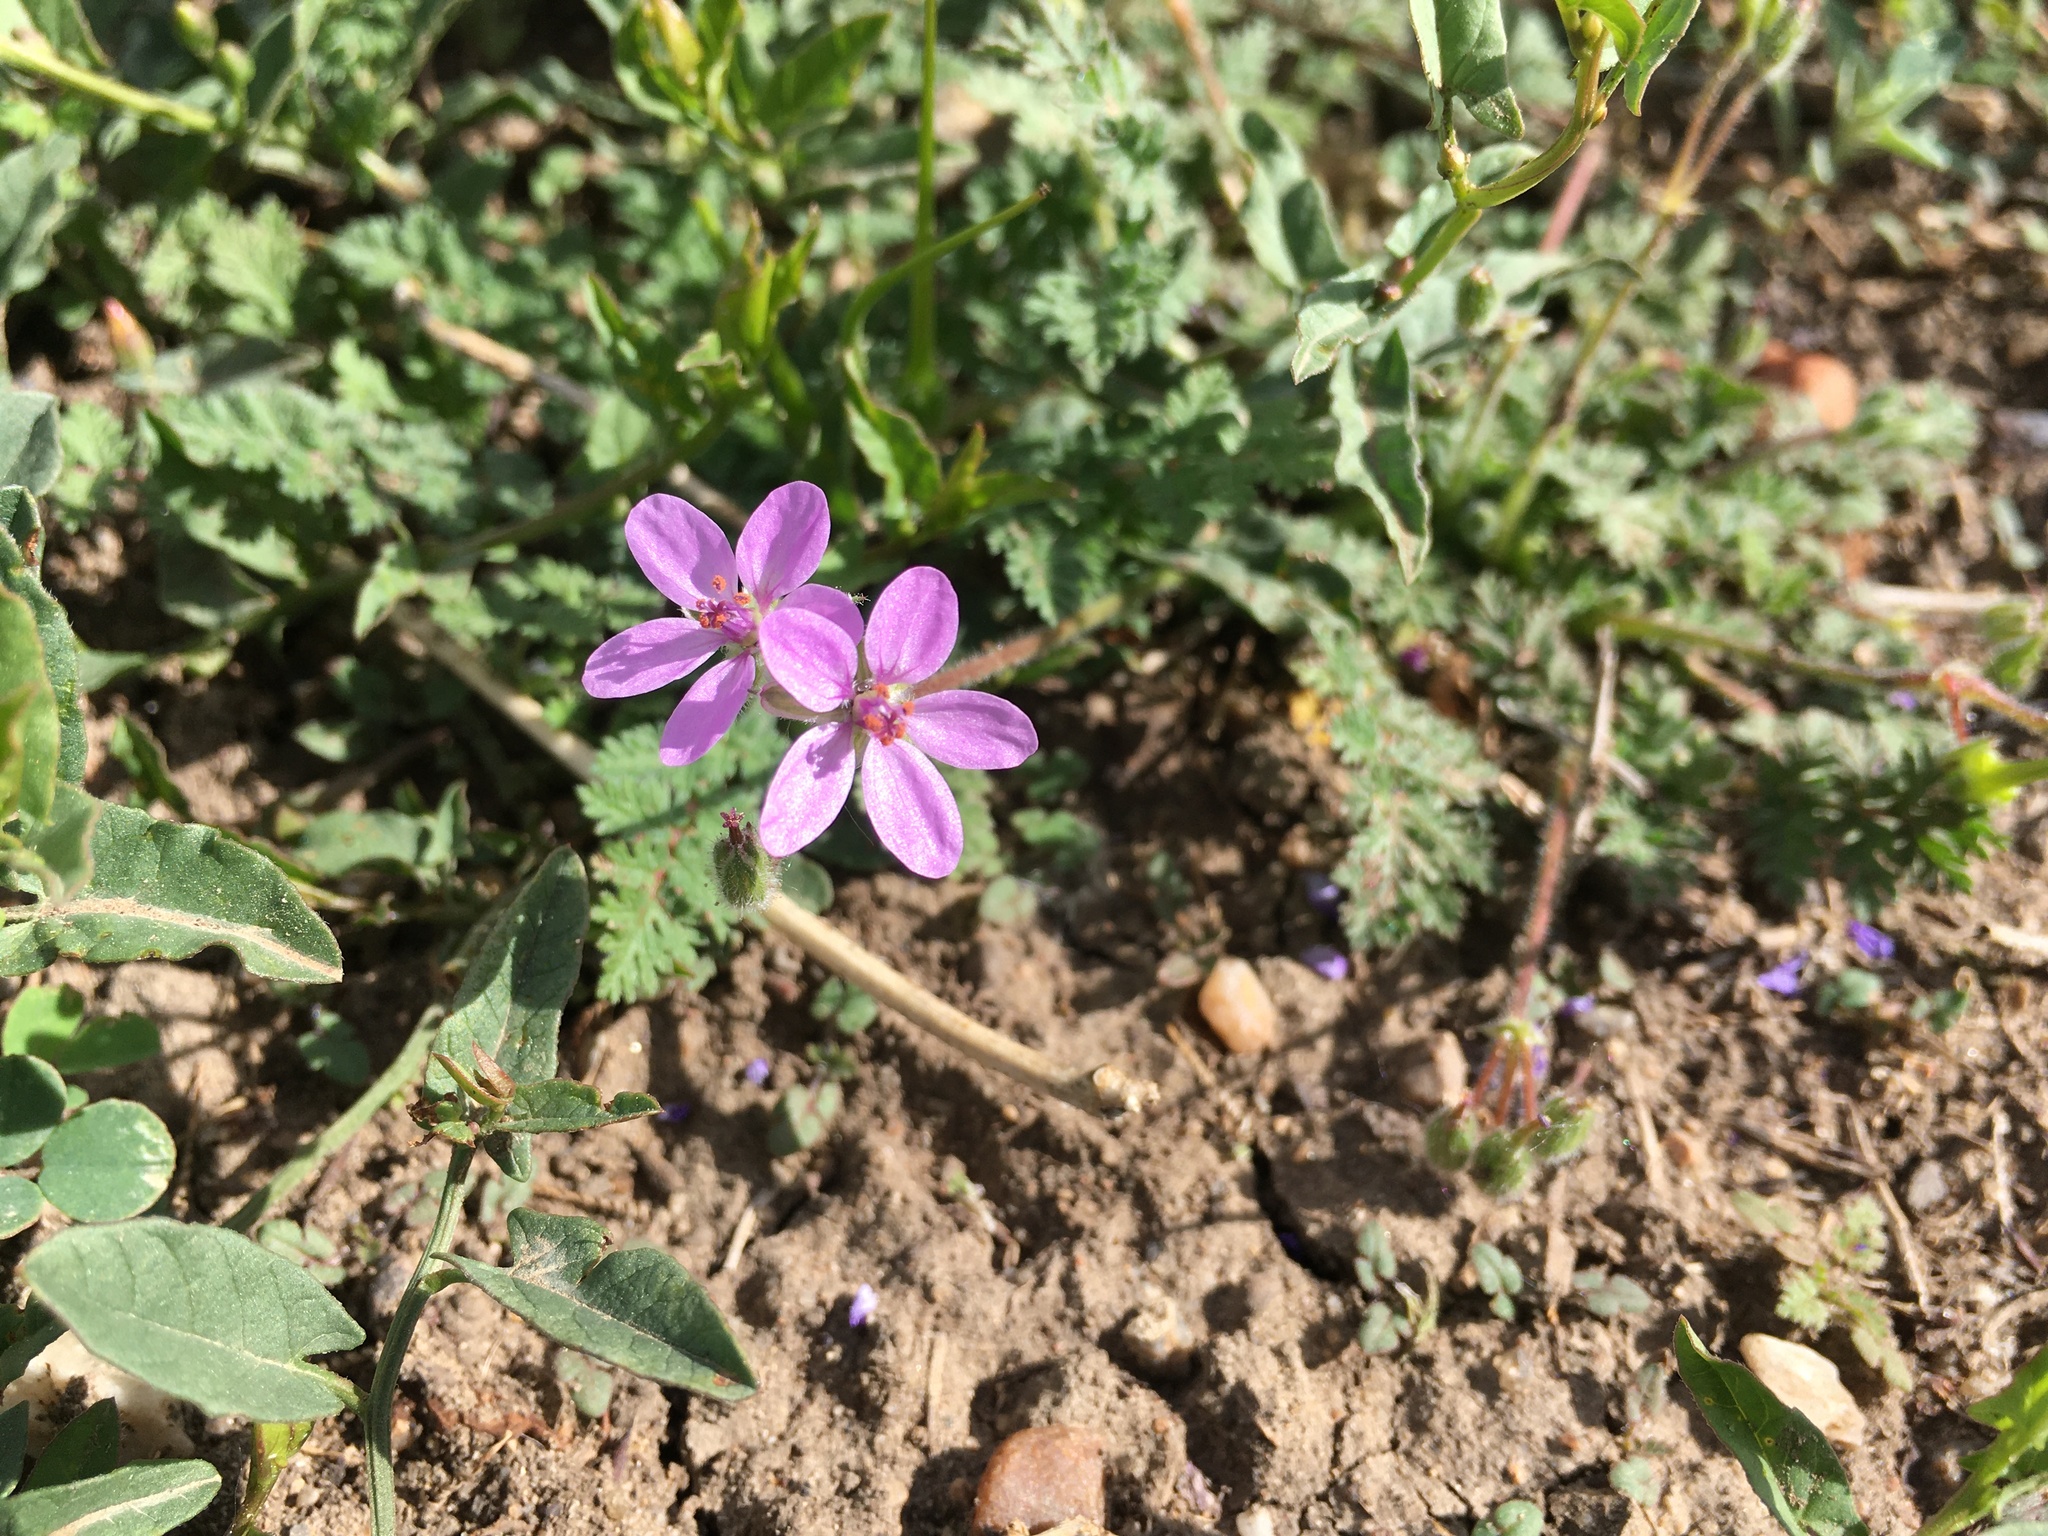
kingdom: Plantae
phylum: Tracheophyta
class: Magnoliopsida
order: Geraniales
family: Geraniaceae
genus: Erodium
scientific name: Erodium cicutarium
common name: Common stork's-bill
